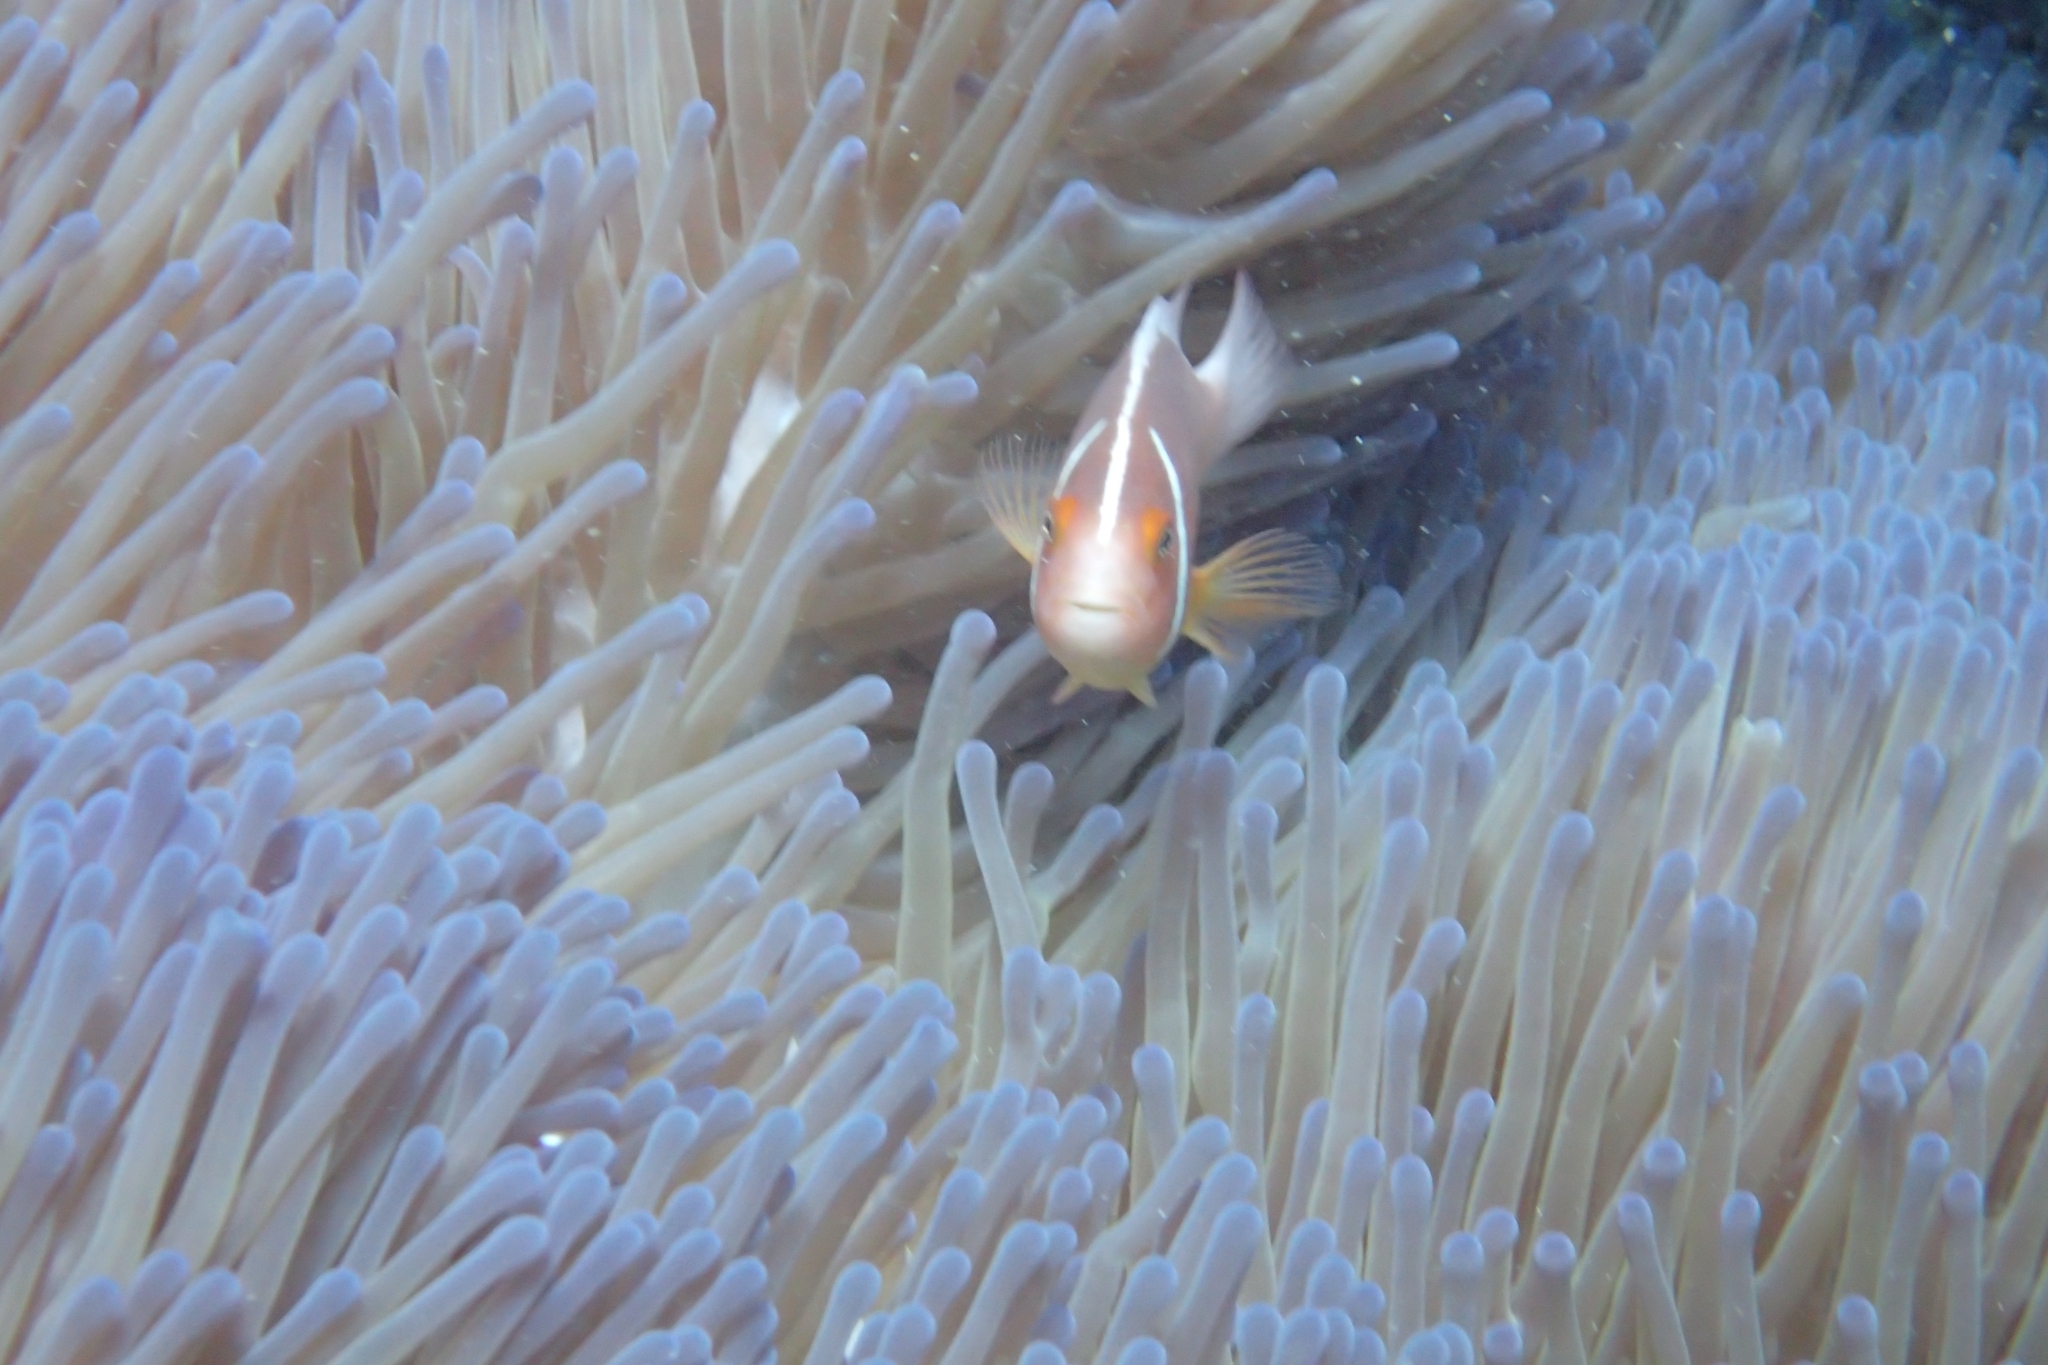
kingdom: Animalia
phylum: Cnidaria
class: Anthozoa
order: Actiniaria
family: Stichodactylidae
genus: Radianthus
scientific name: Radianthus magnifica
